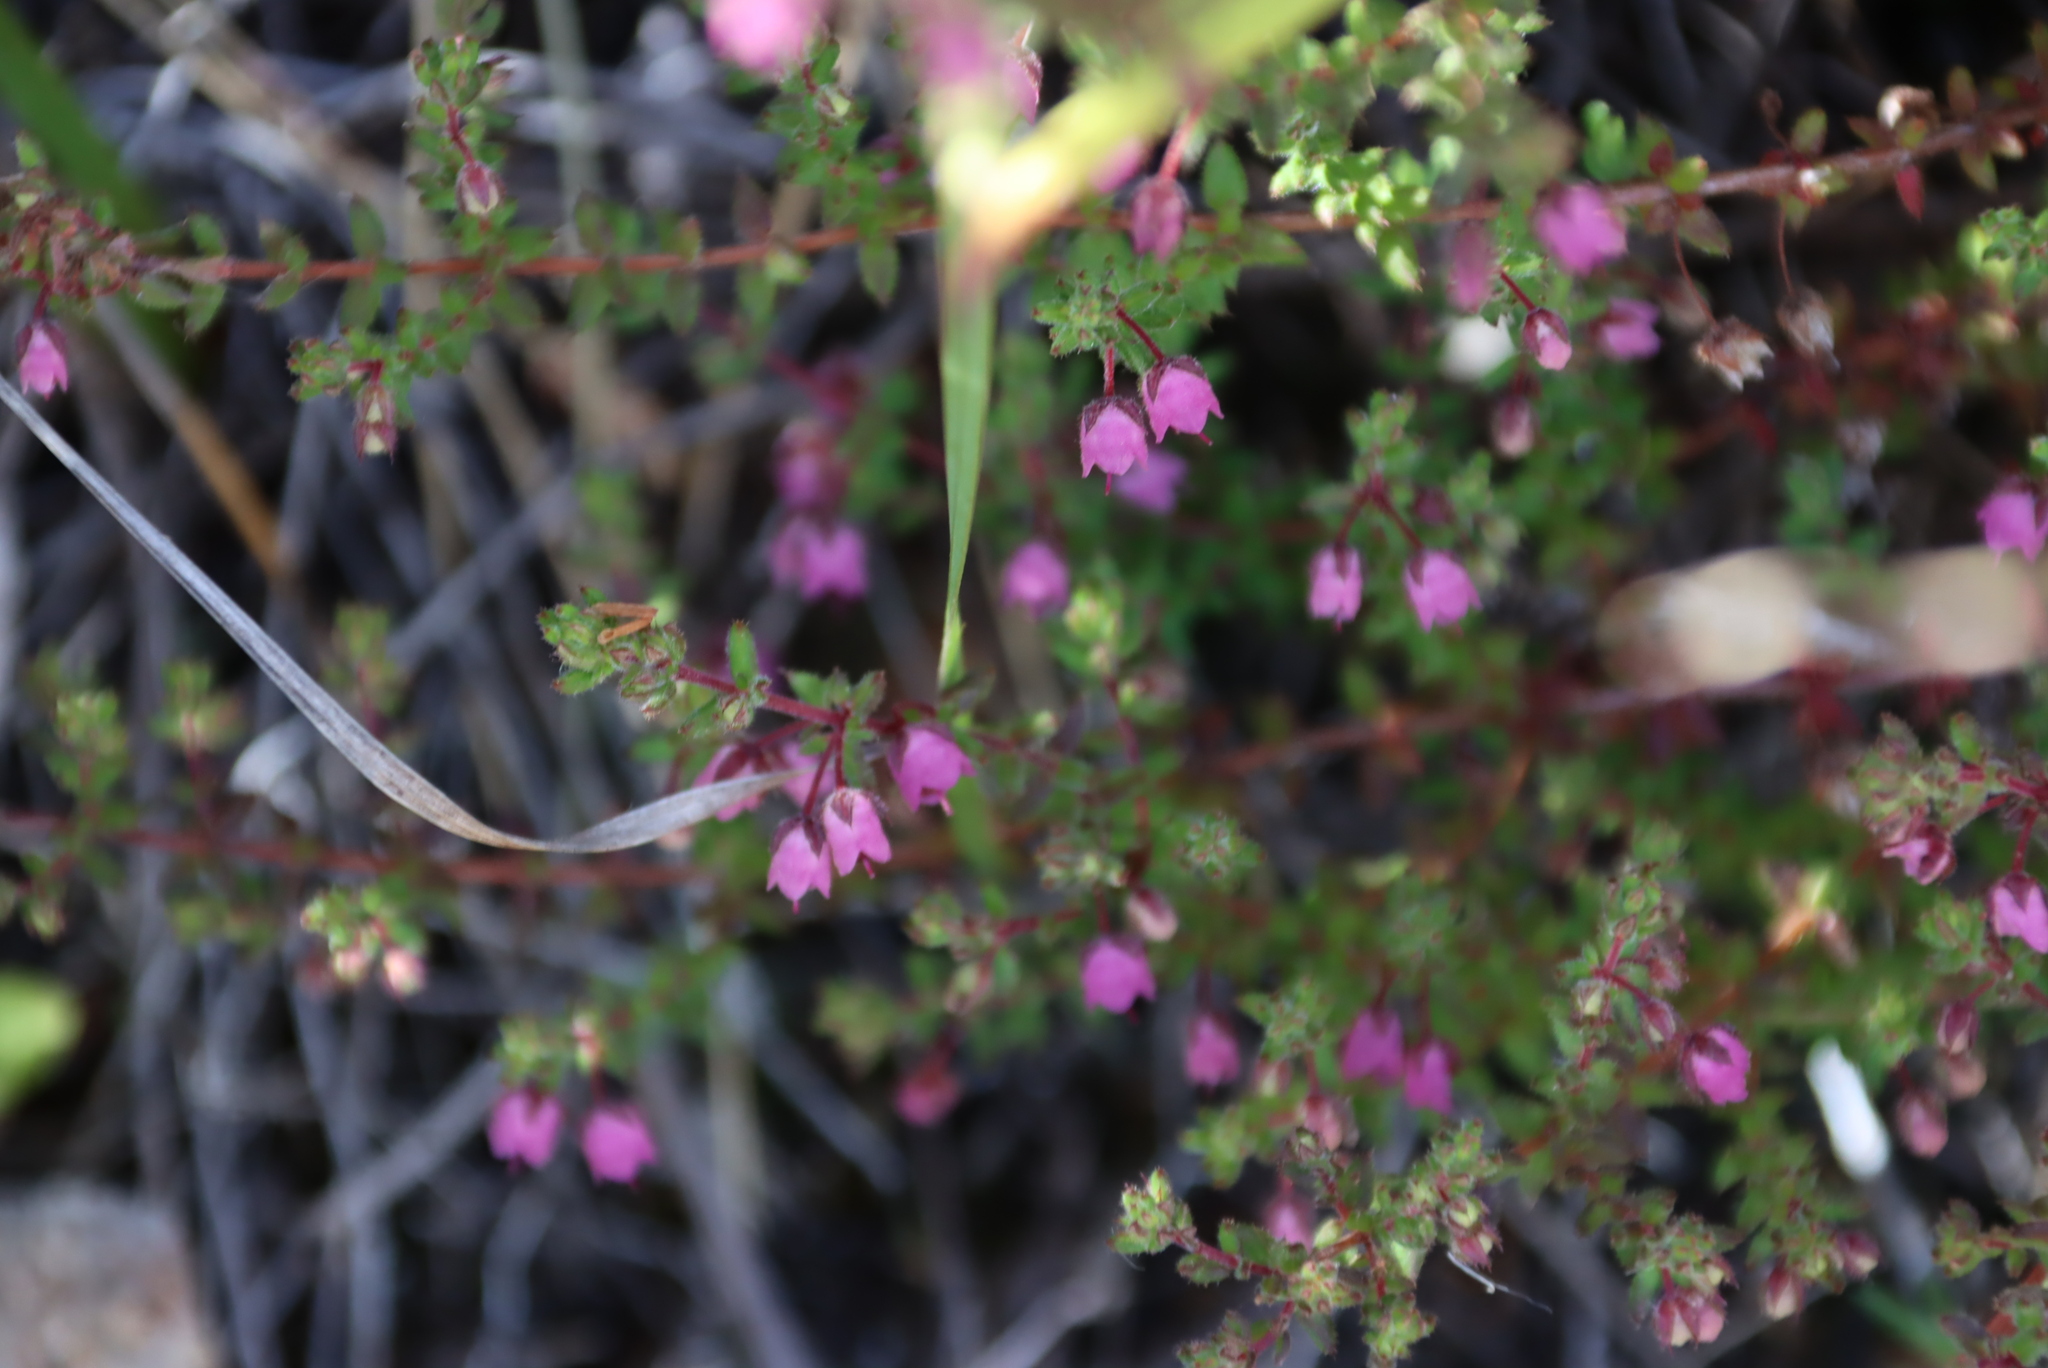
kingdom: Plantae
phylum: Tracheophyta
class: Magnoliopsida
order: Ericales
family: Ericaceae
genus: Erica
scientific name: Erica planifolia
